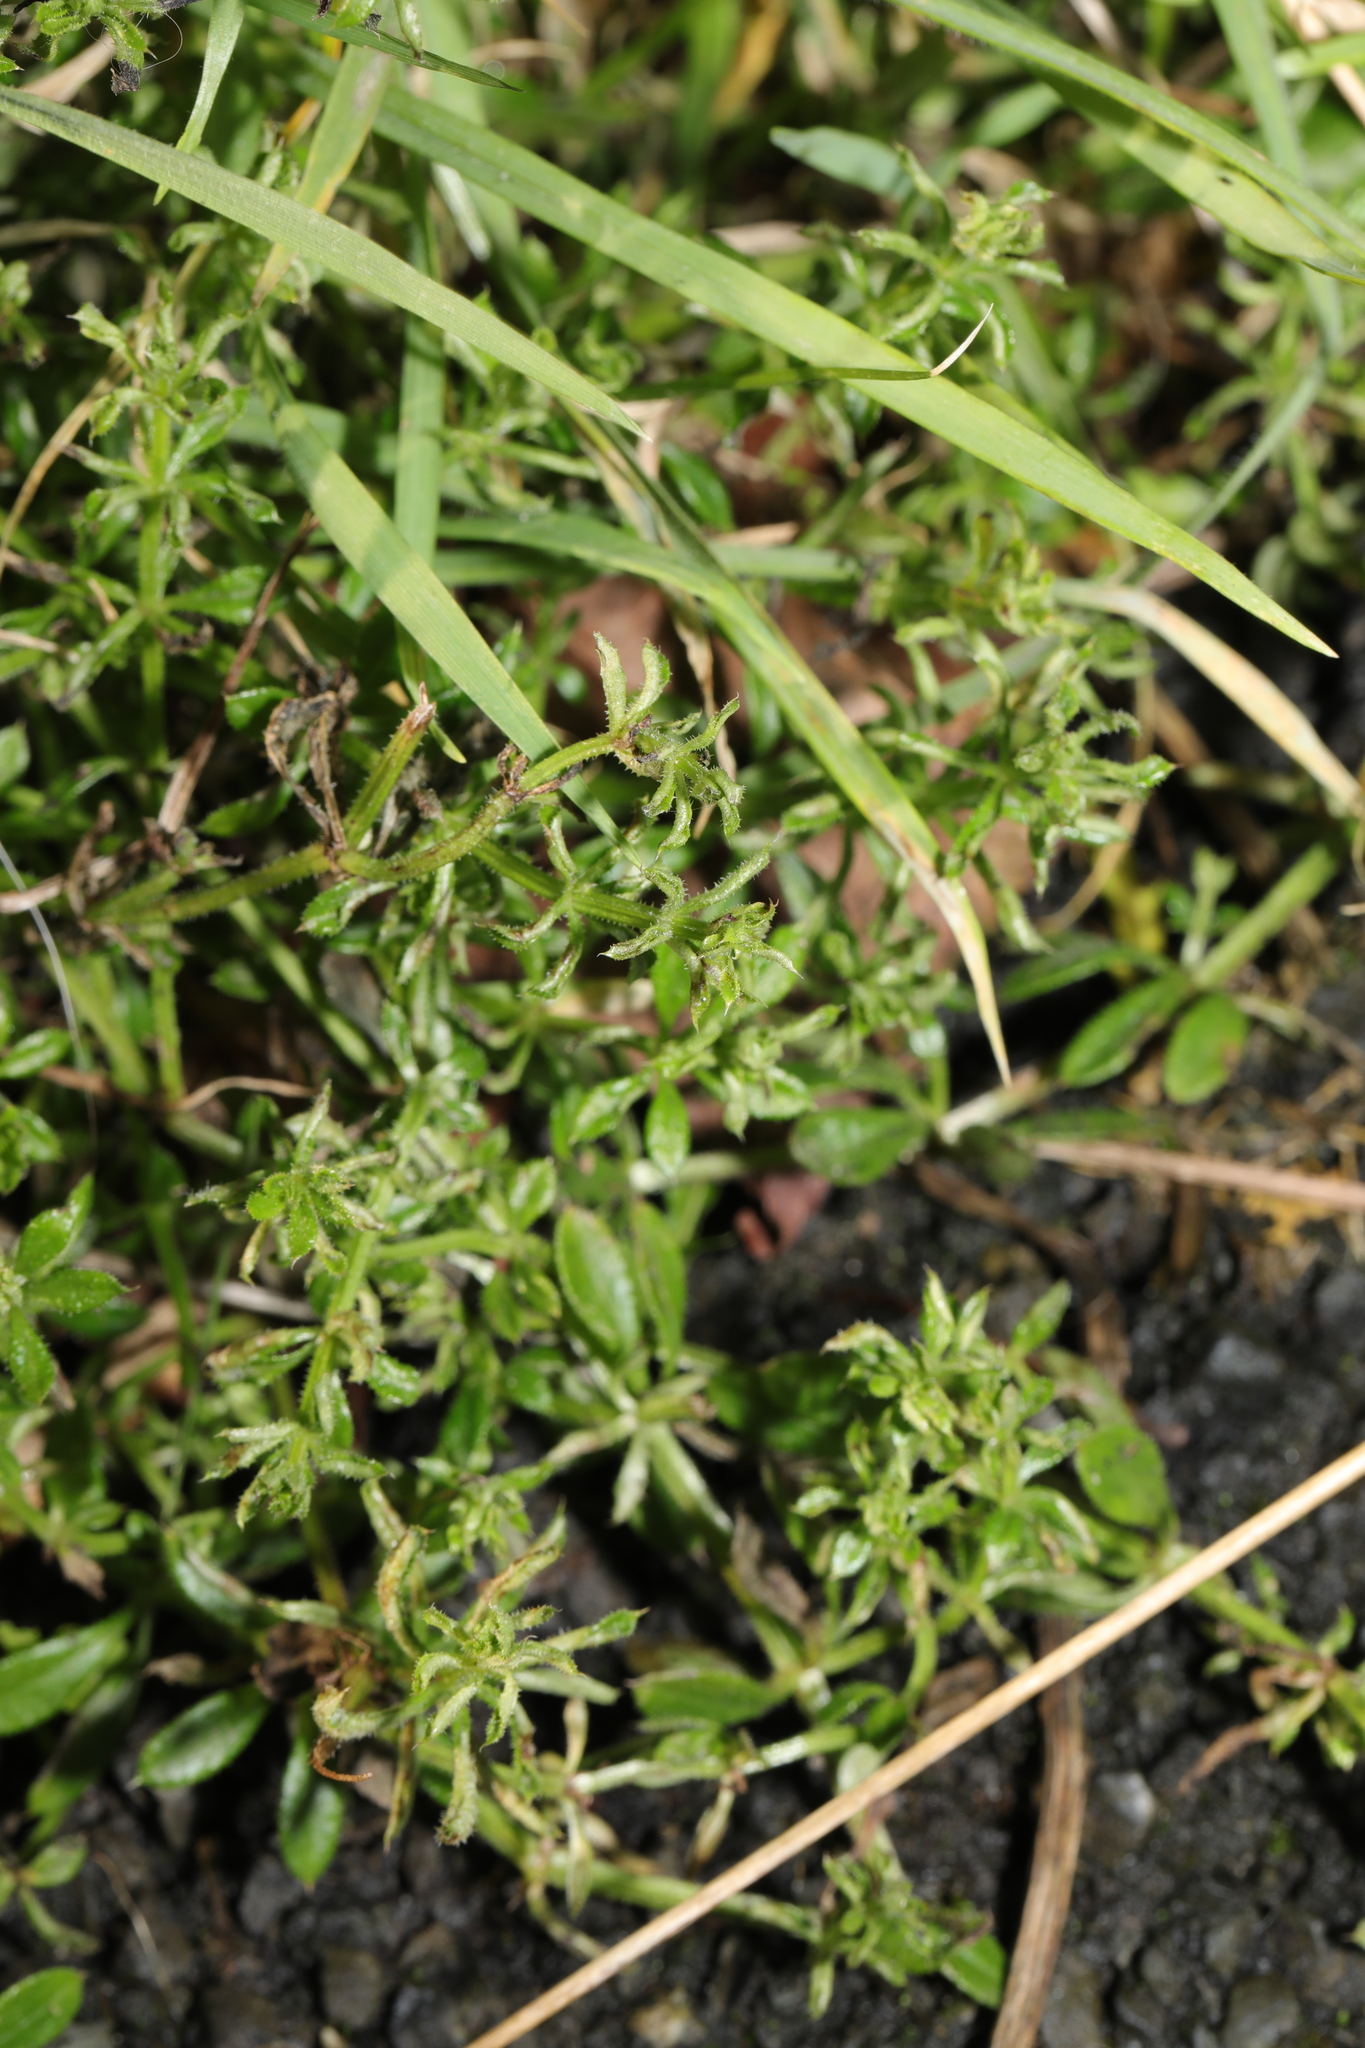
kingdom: Plantae
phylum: Tracheophyta
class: Magnoliopsida
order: Gentianales
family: Rubiaceae
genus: Galium
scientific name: Galium aparine
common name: Cleavers
